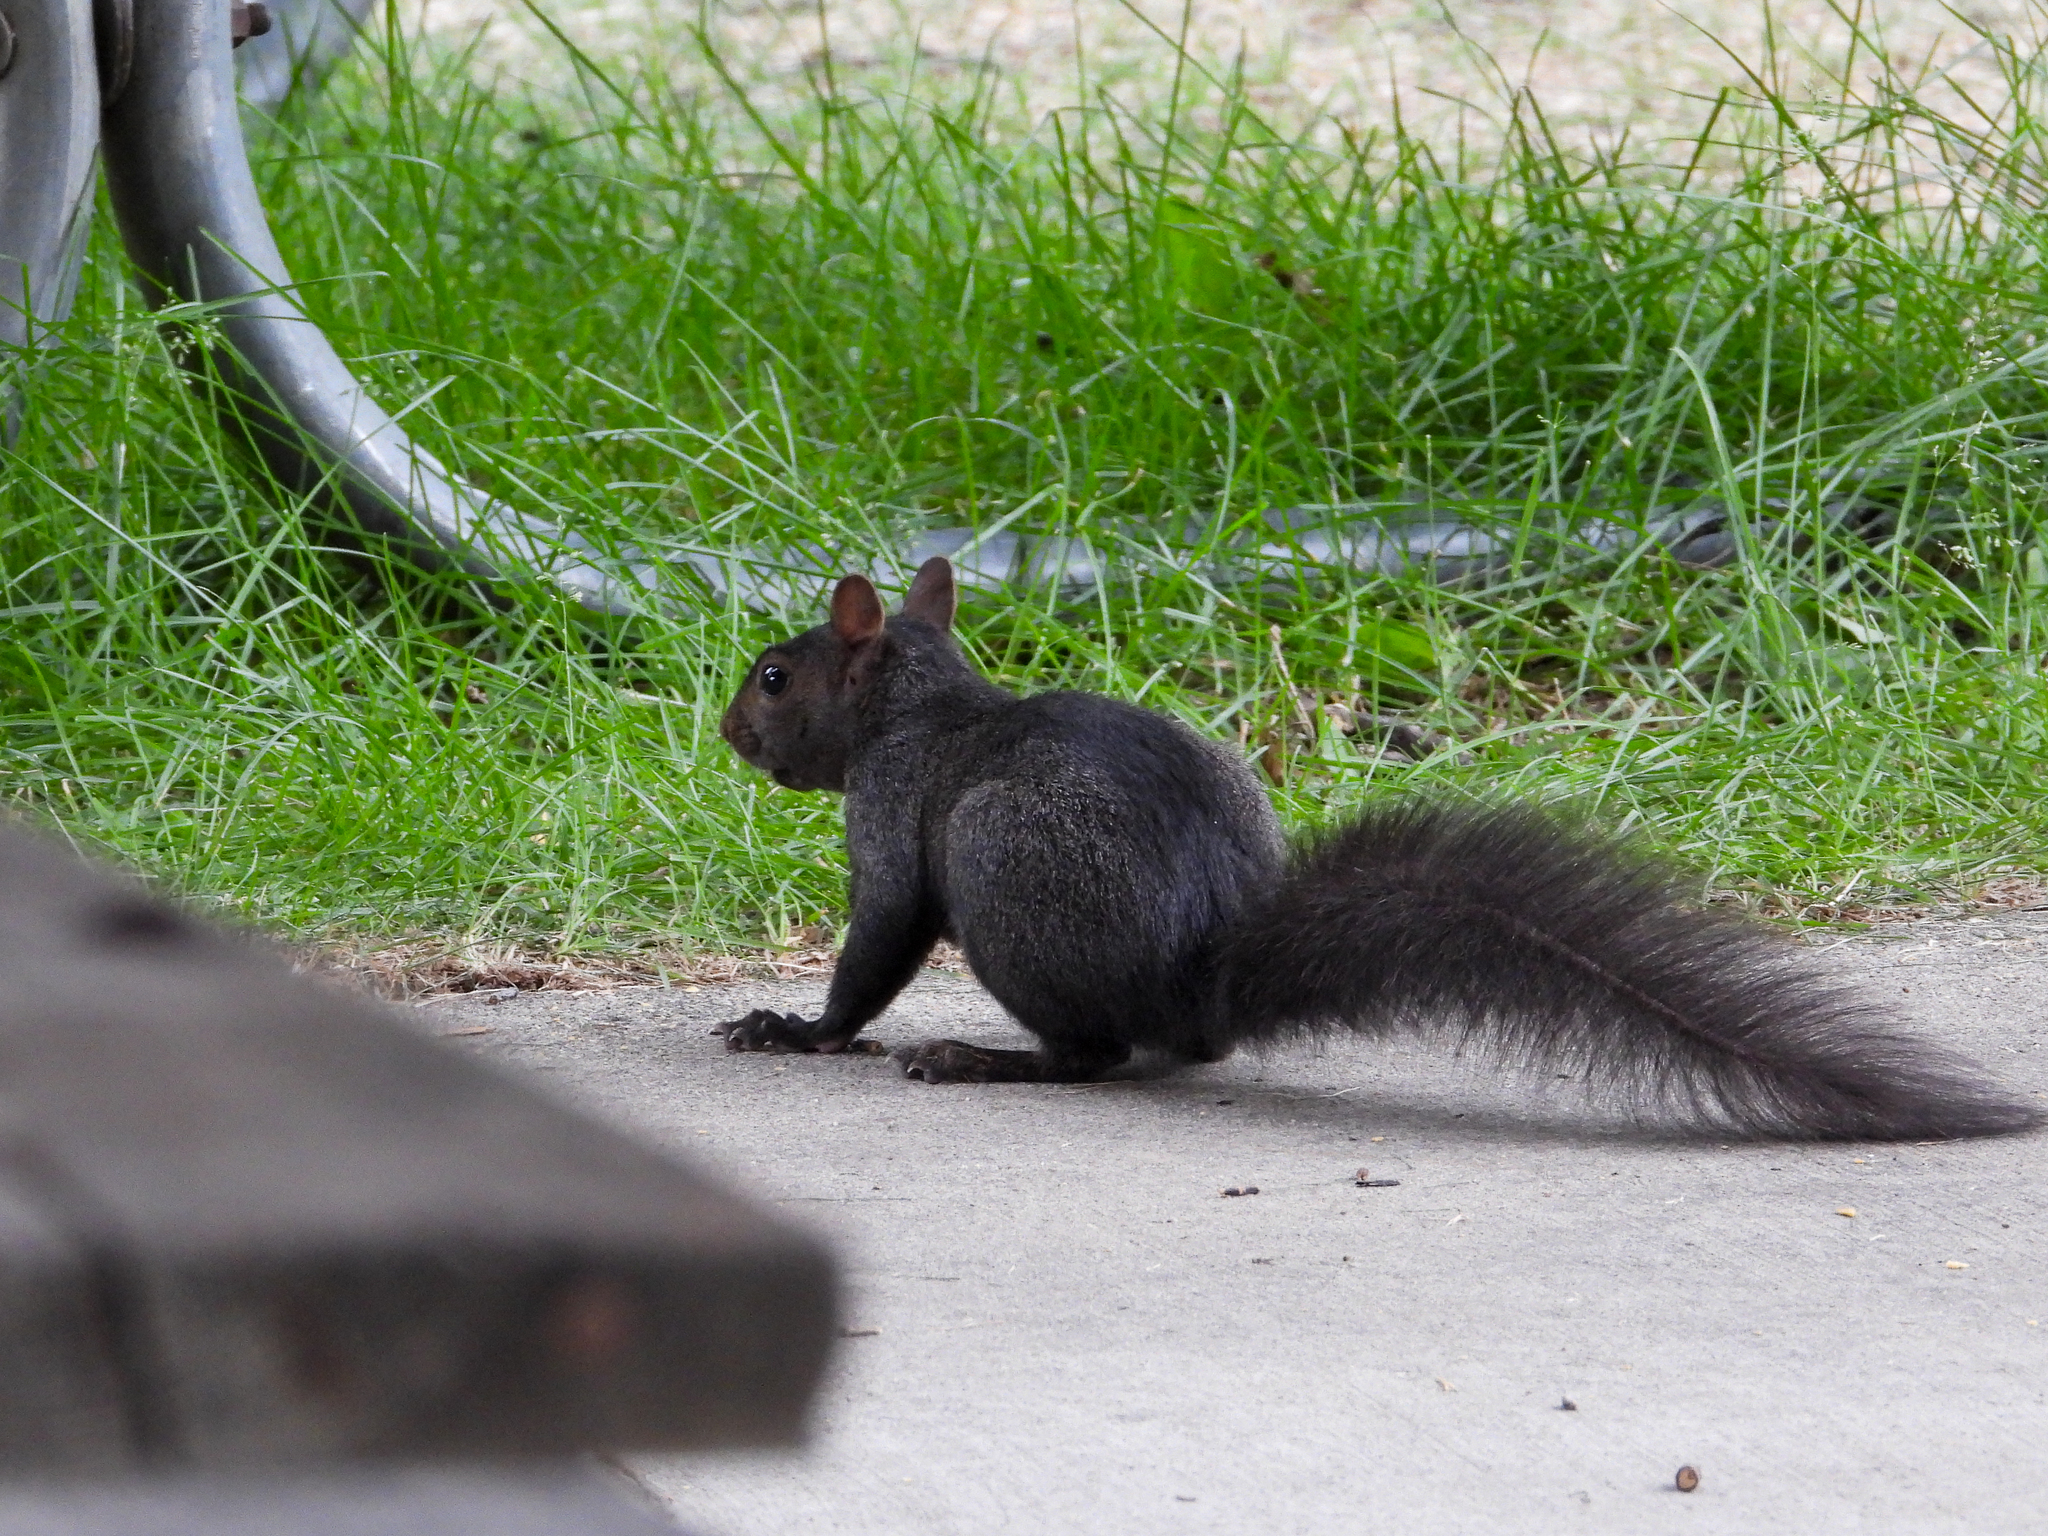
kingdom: Animalia
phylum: Chordata
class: Mammalia
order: Rodentia
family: Sciuridae
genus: Sciurus
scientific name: Sciurus carolinensis
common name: Eastern gray squirrel
